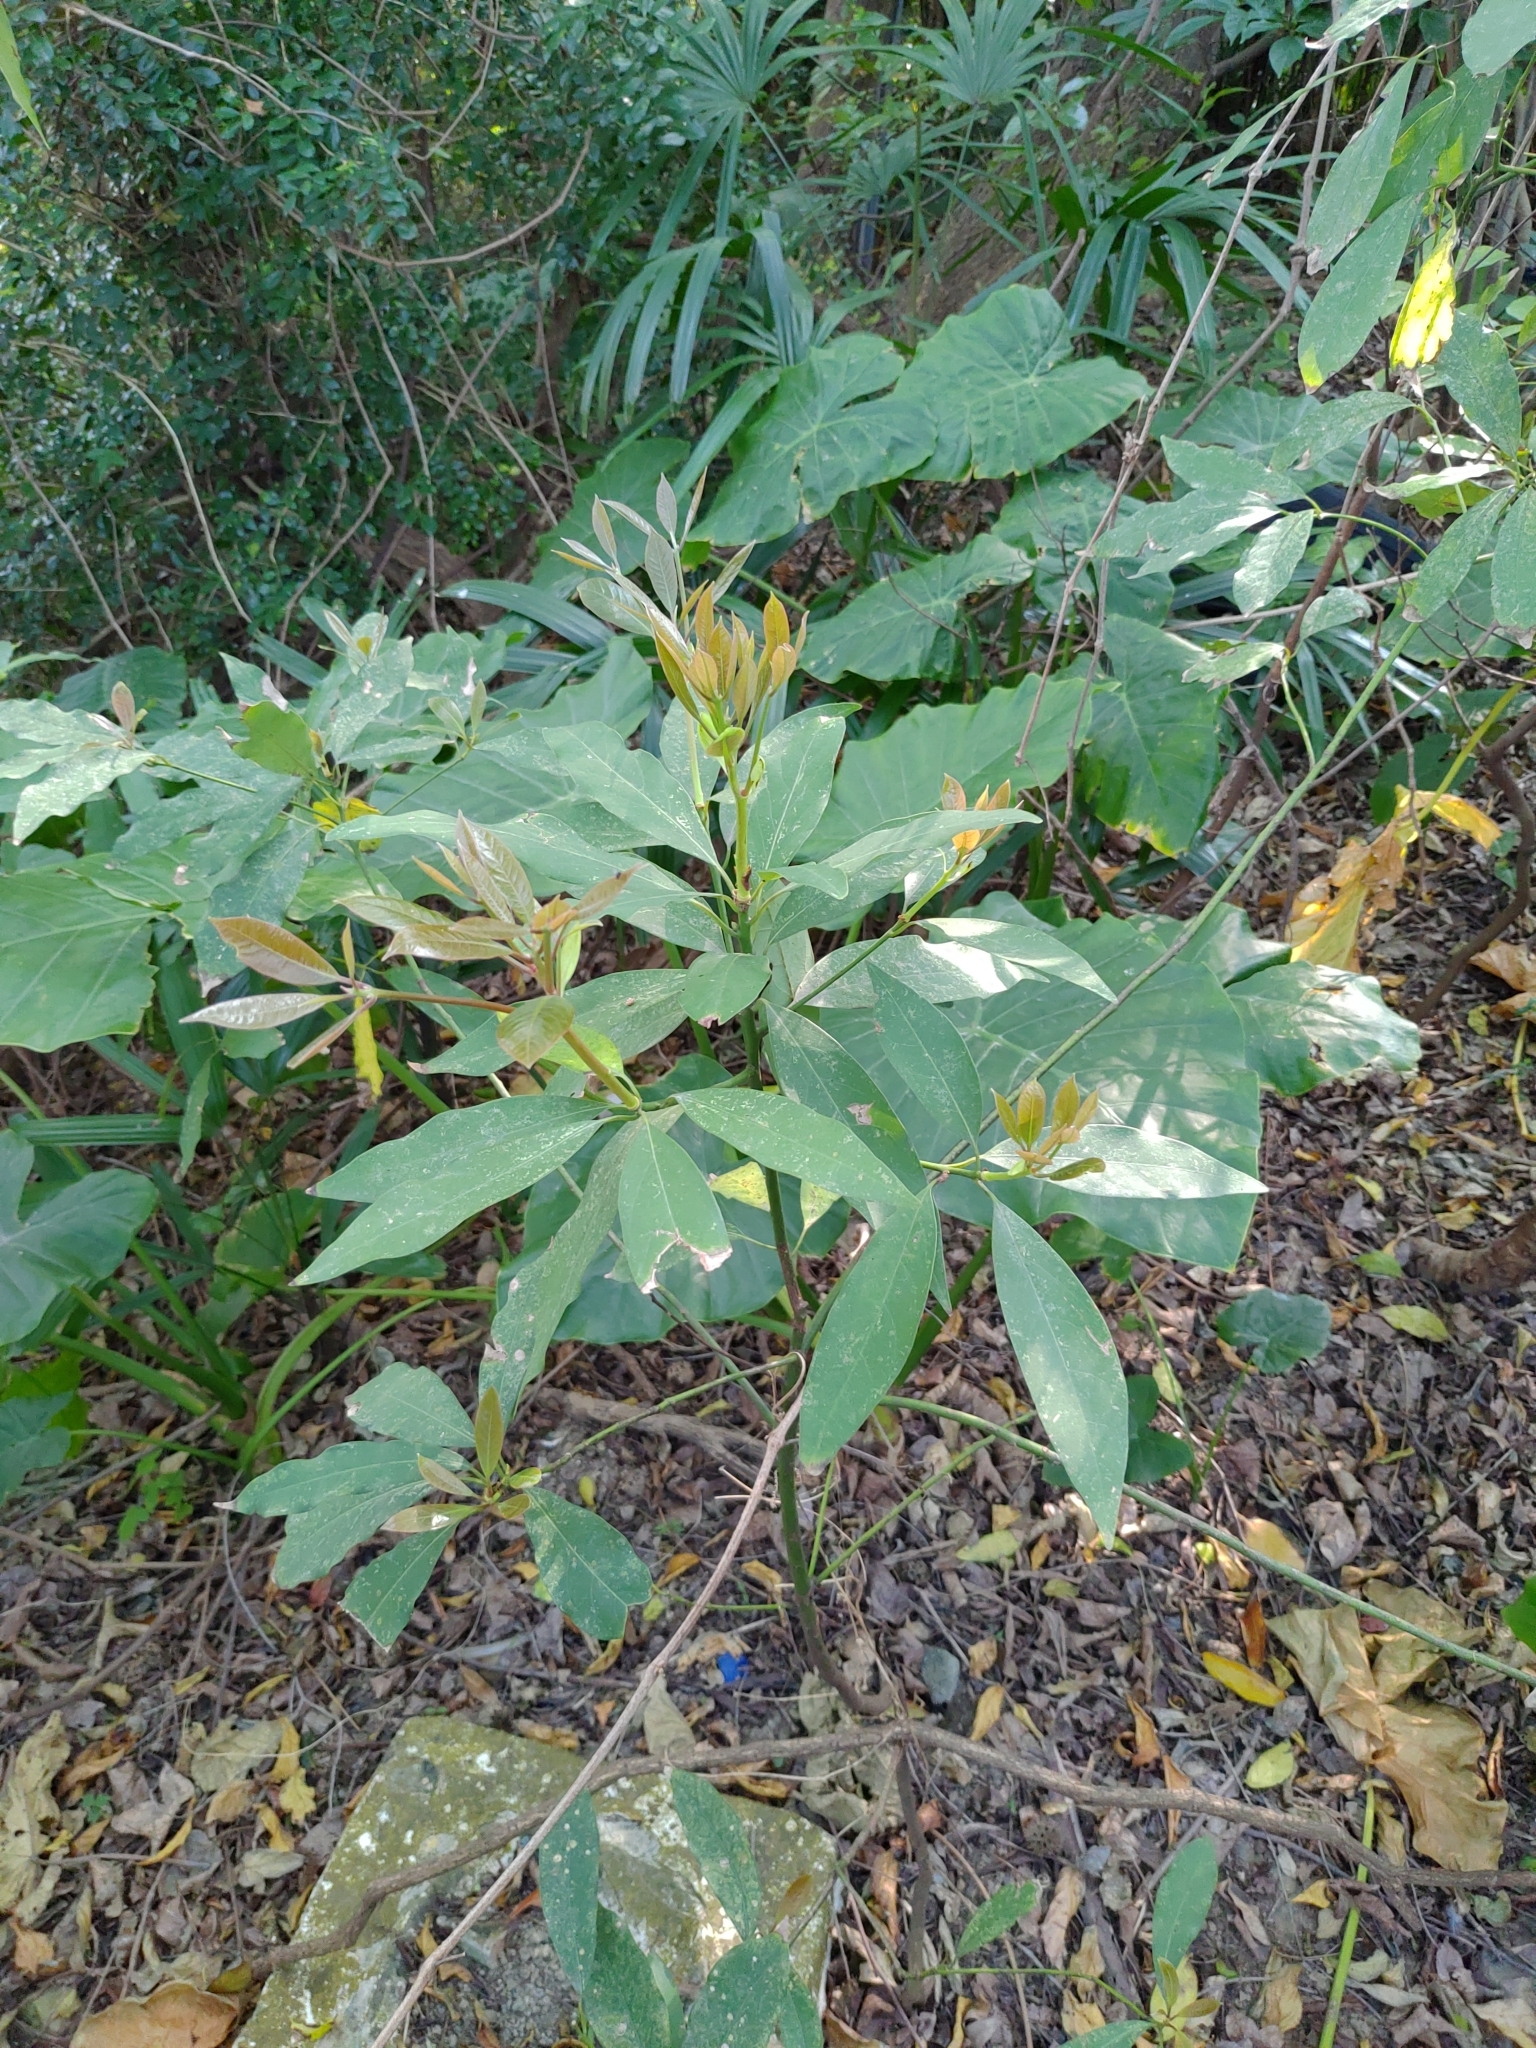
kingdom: Plantae
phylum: Tracheophyta
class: Magnoliopsida
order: Laurales
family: Lauraceae
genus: Machilus
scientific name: Machilus zuihoensis
